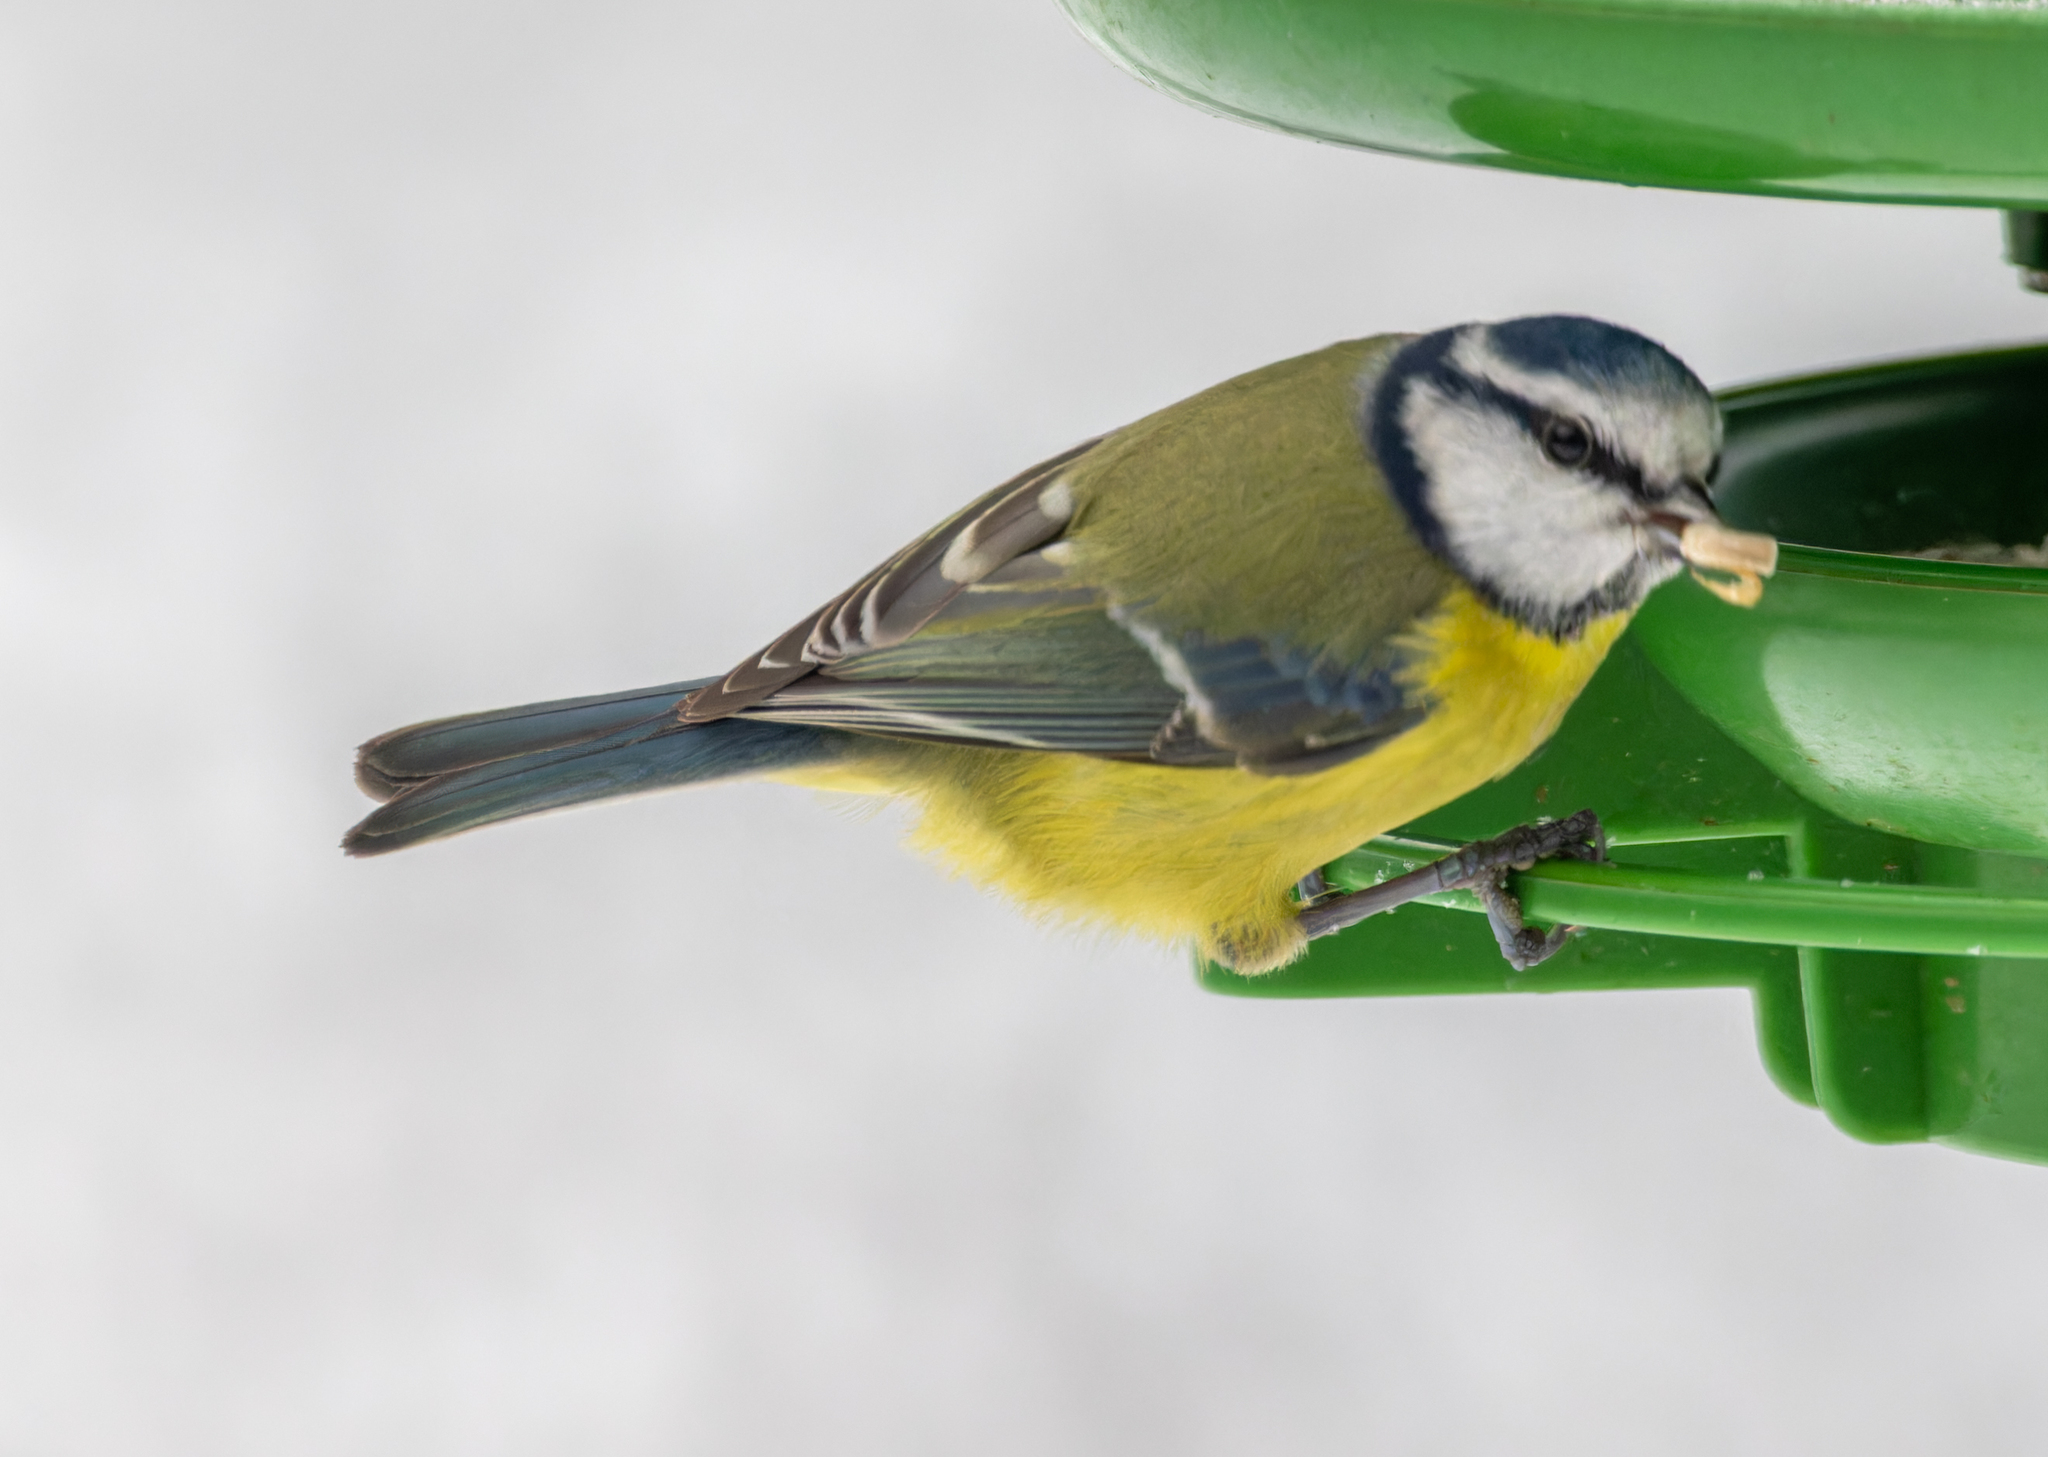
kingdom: Animalia
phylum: Chordata
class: Aves
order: Passeriformes
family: Paridae
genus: Cyanistes
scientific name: Cyanistes caeruleus
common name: Eurasian blue tit
